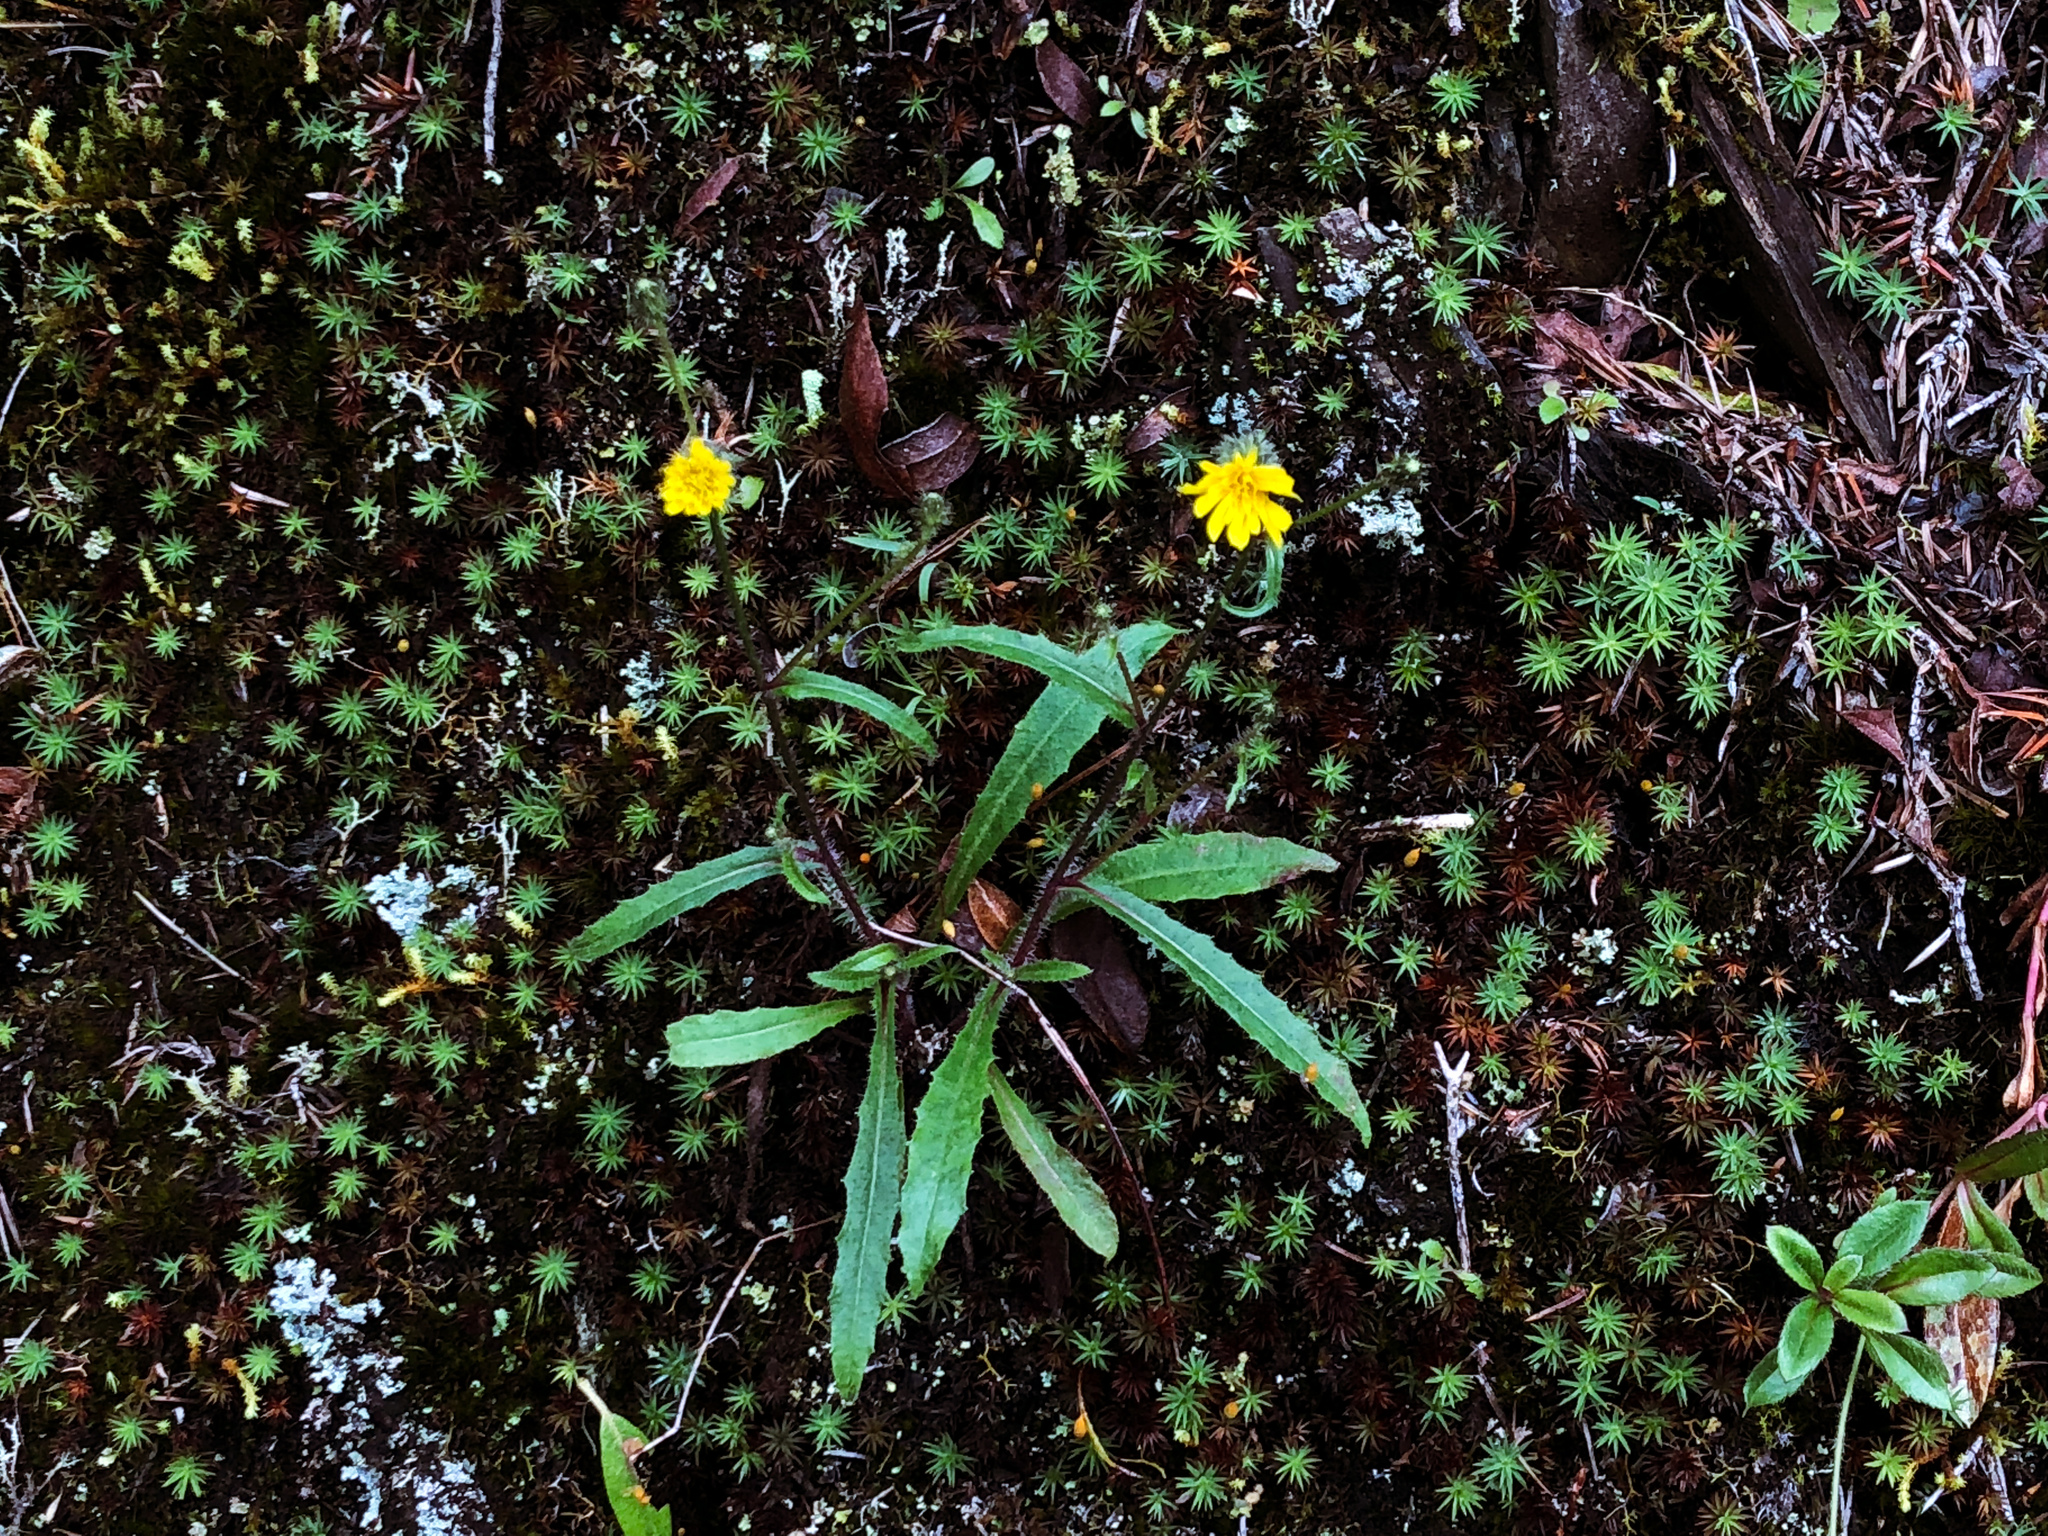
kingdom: Plantae
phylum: Tracheophyta
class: Magnoliopsida
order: Asterales
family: Asteraceae
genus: Picris
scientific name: Picris angustifolia
